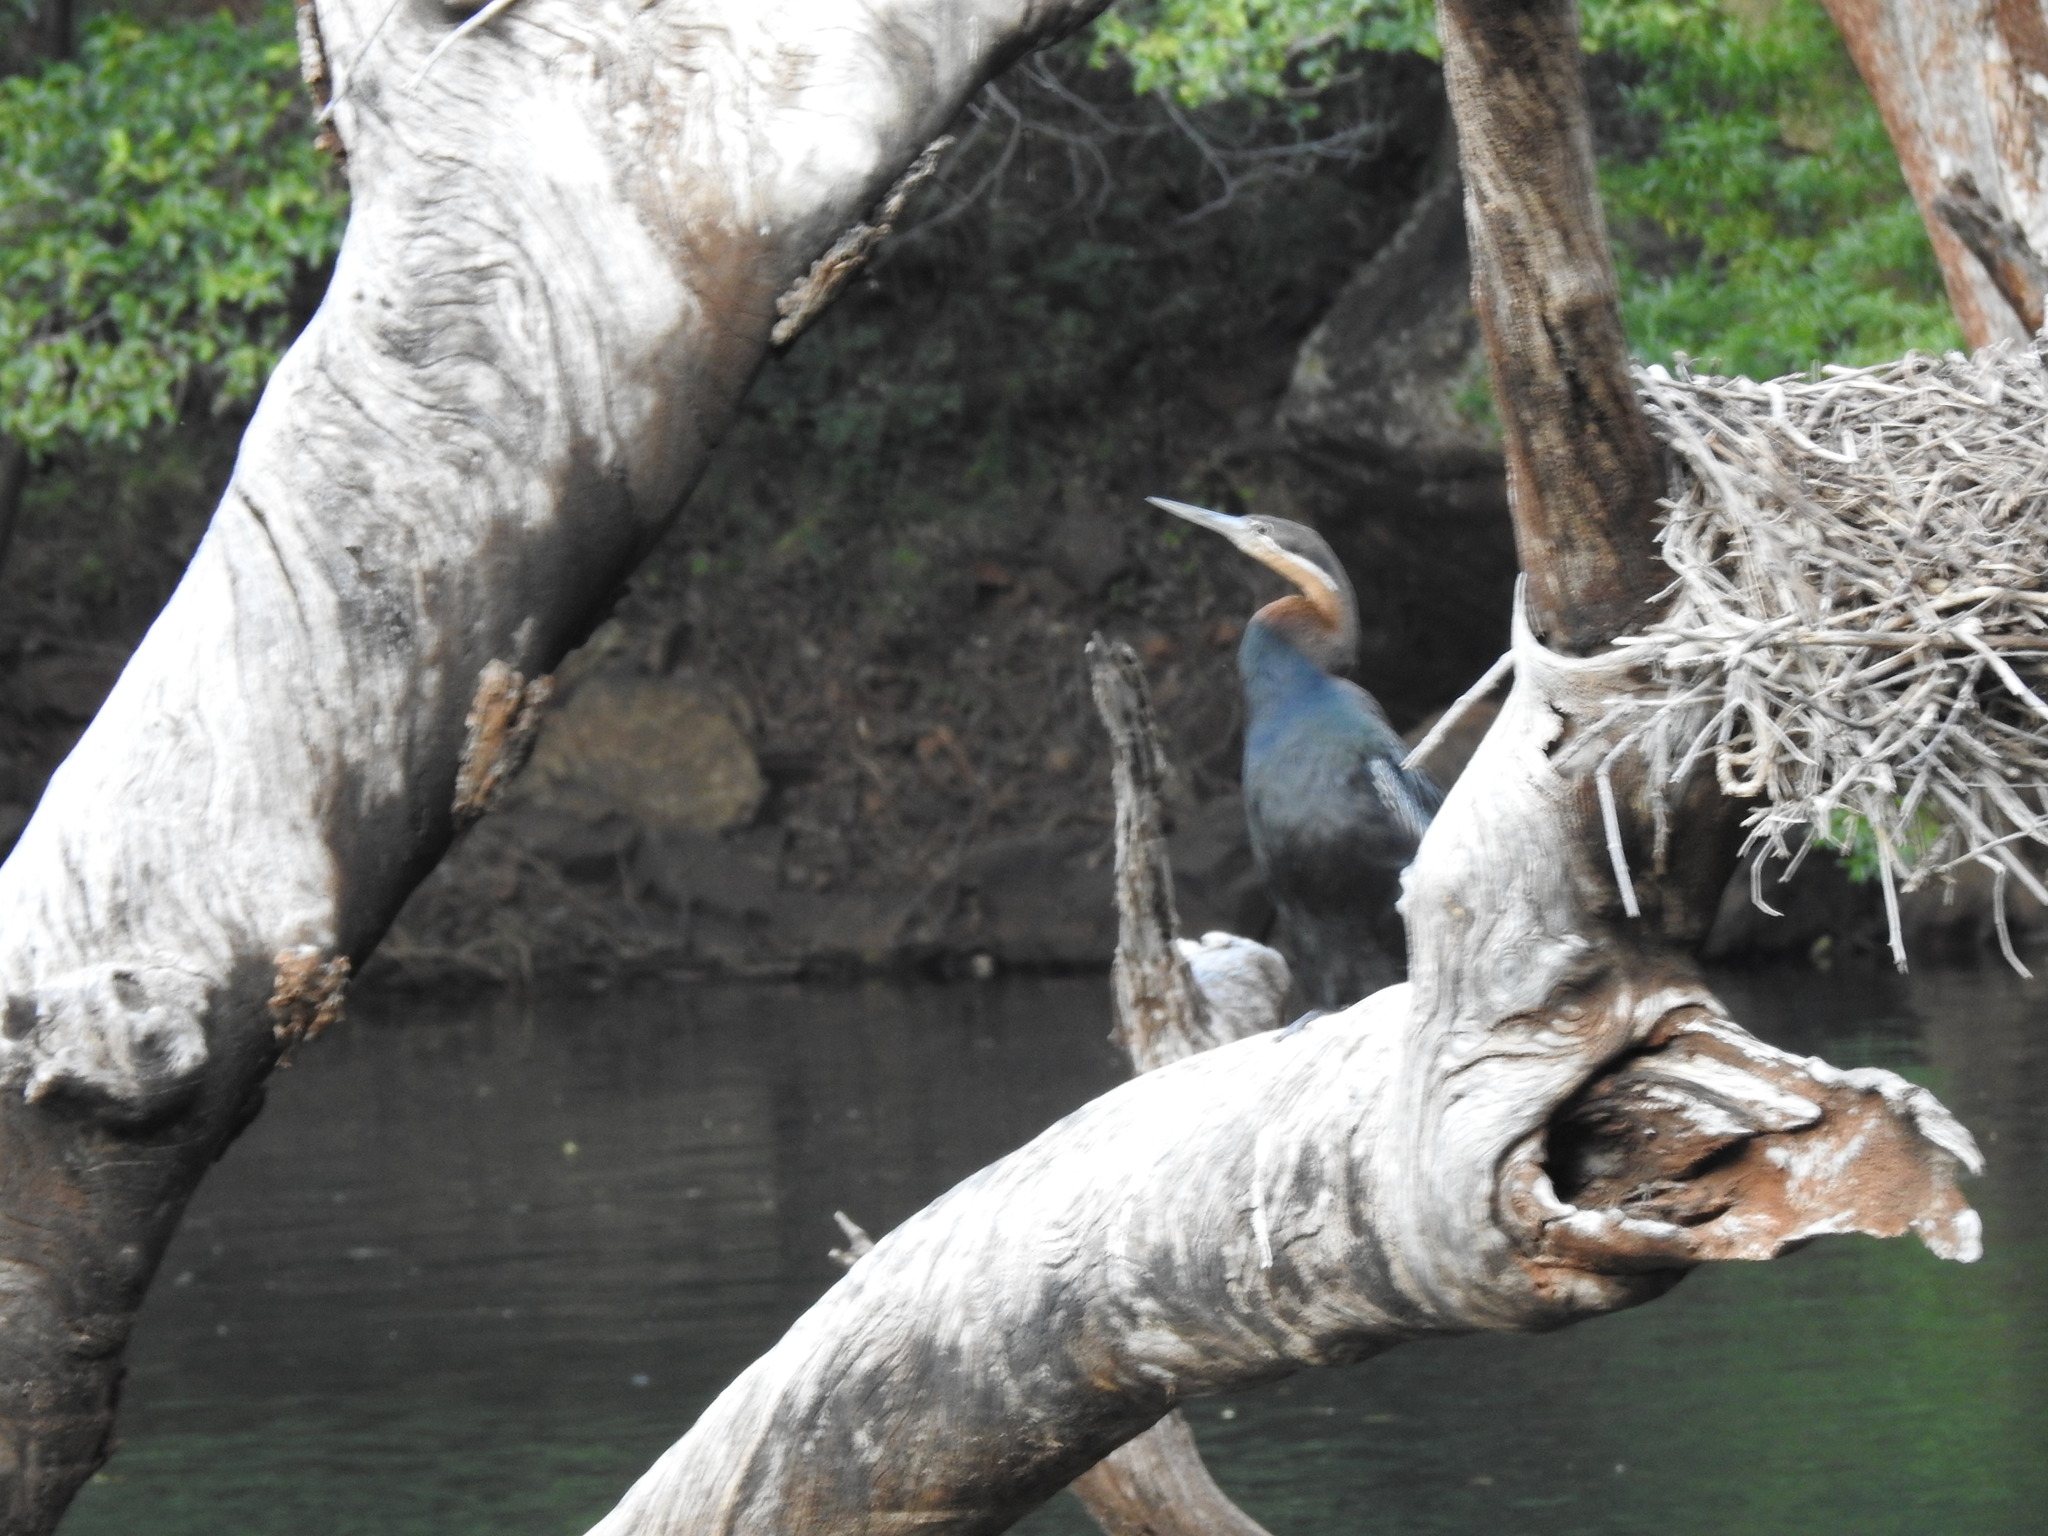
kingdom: Animalia
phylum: Chordata
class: Aves
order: Suliformes
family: Anhingidae
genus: Anhinga
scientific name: Anhinga rufa
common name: African darter
